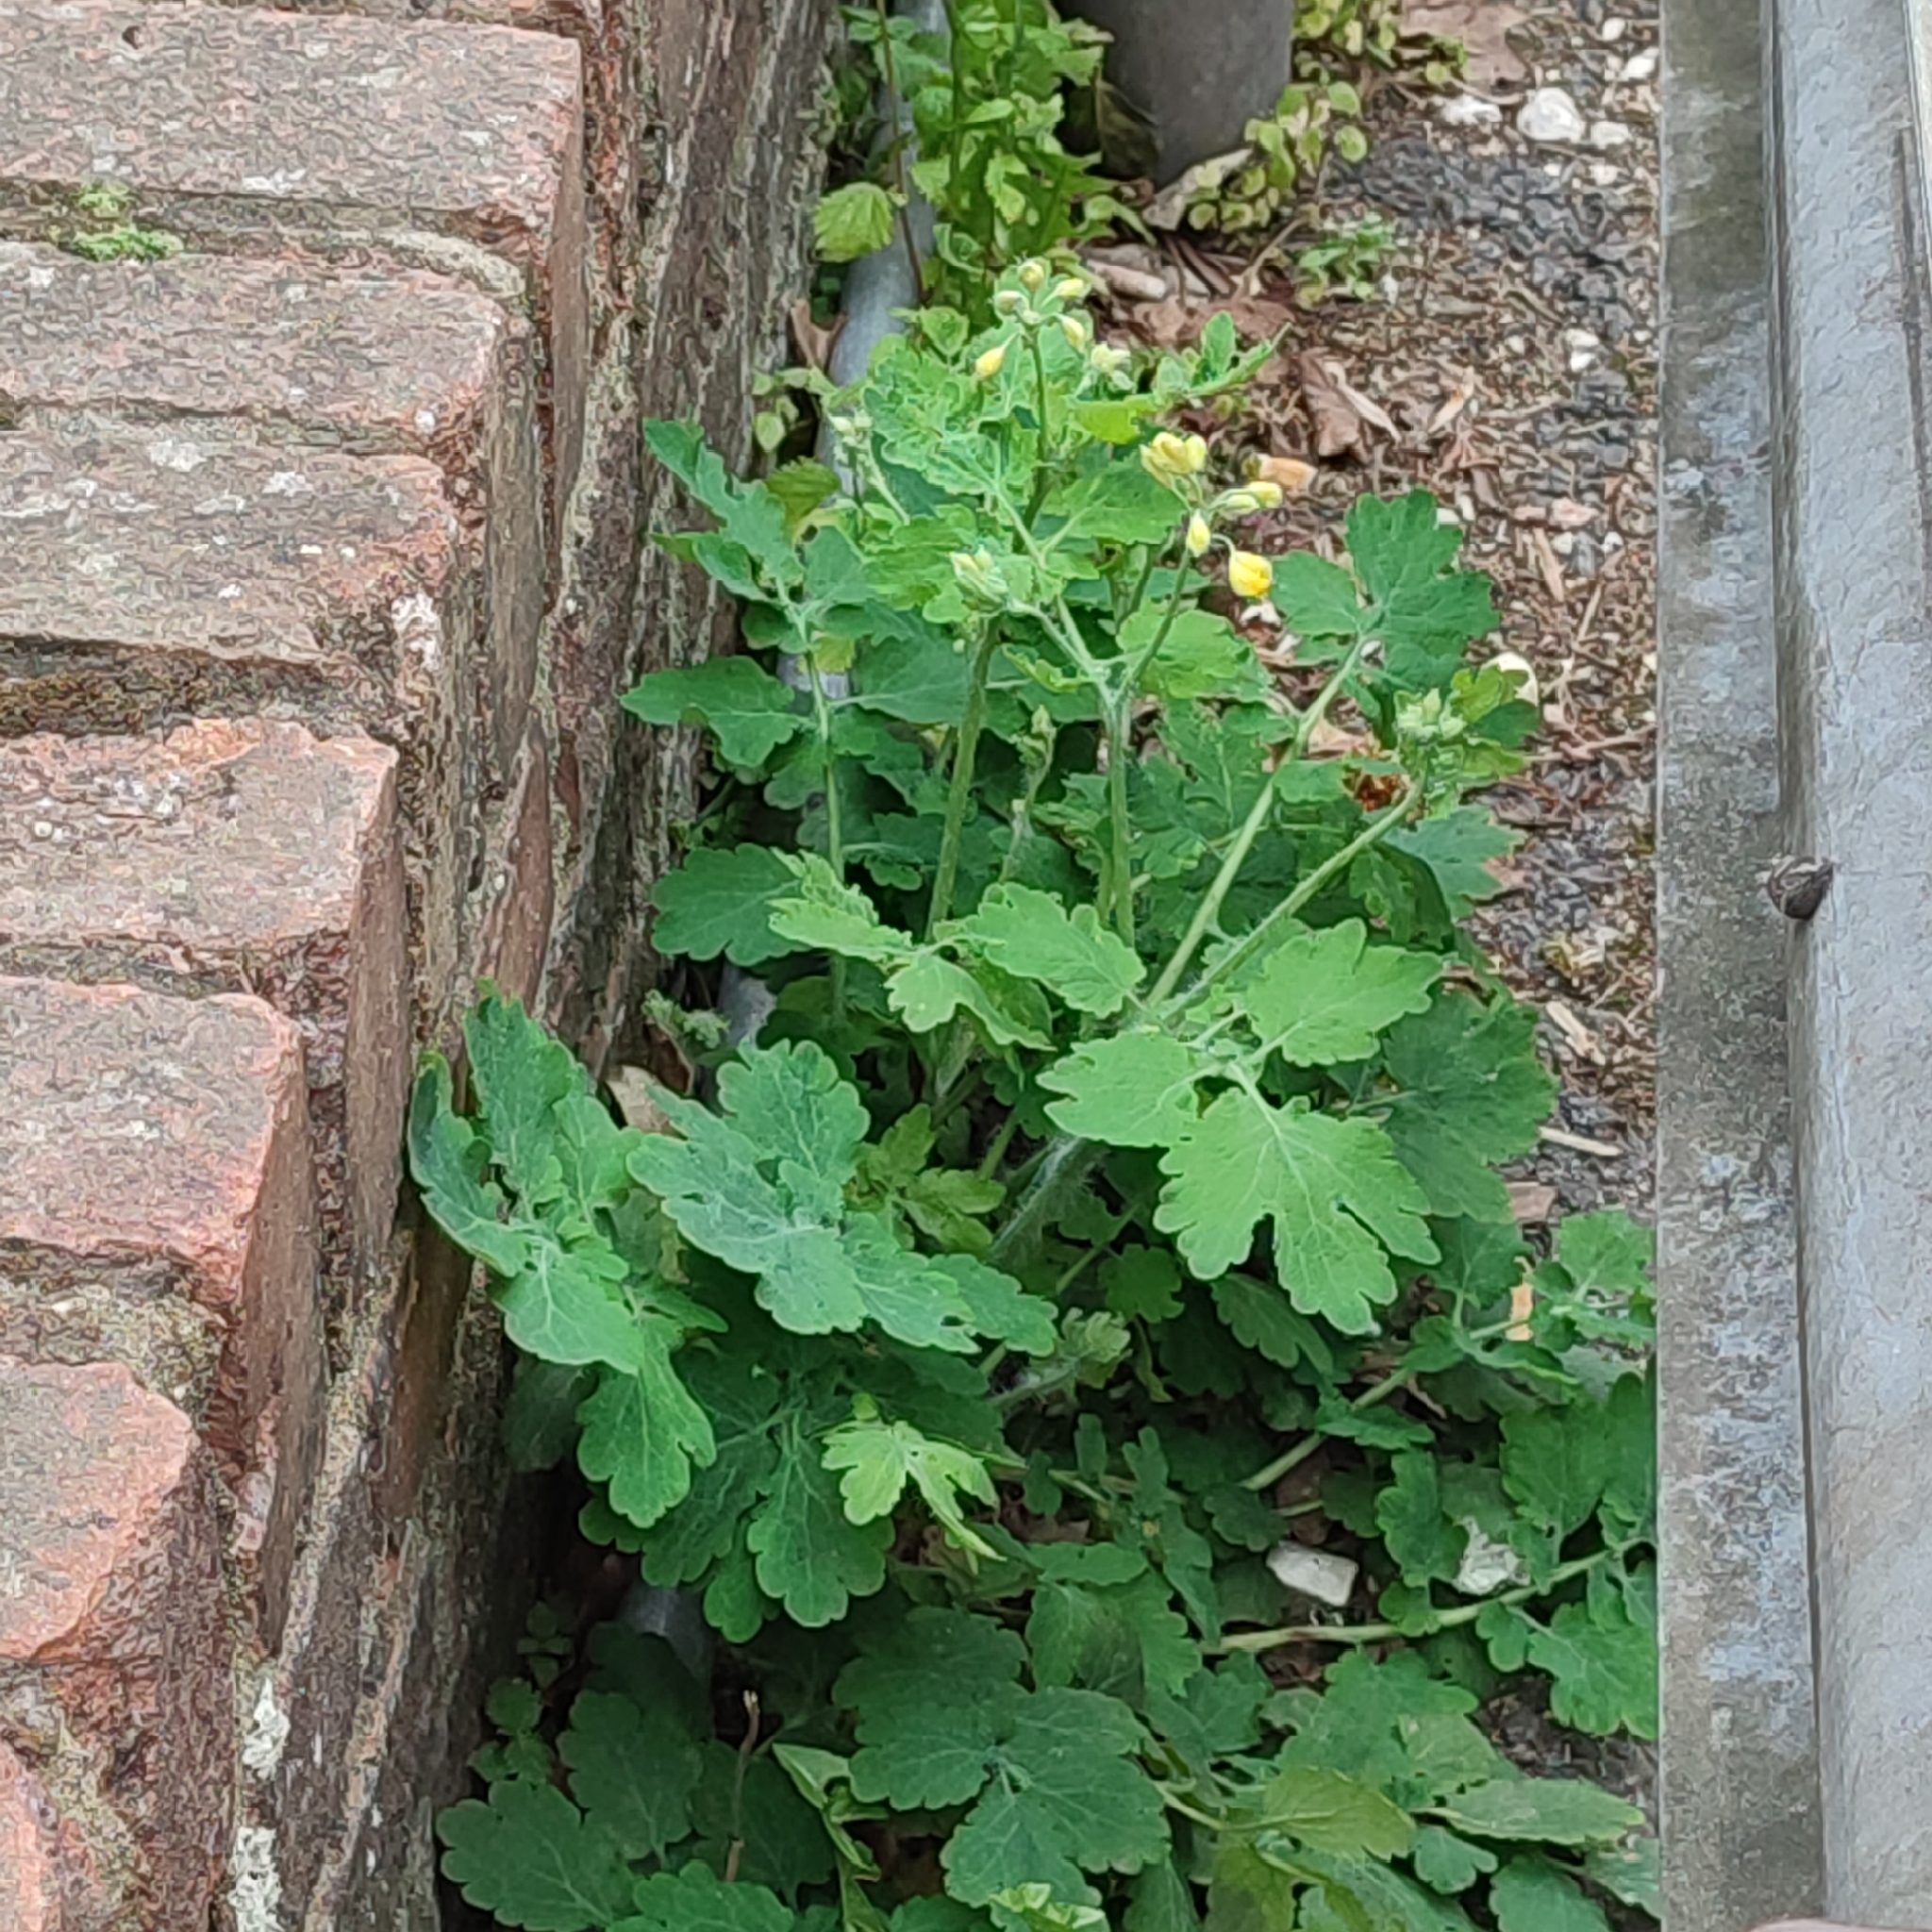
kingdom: Plantae
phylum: Tracheophyta
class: Magnoliopsida
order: Ranunculales
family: Papaveraceae
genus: Chelidonium
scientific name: Chelidonium majus
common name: Greater celandine
